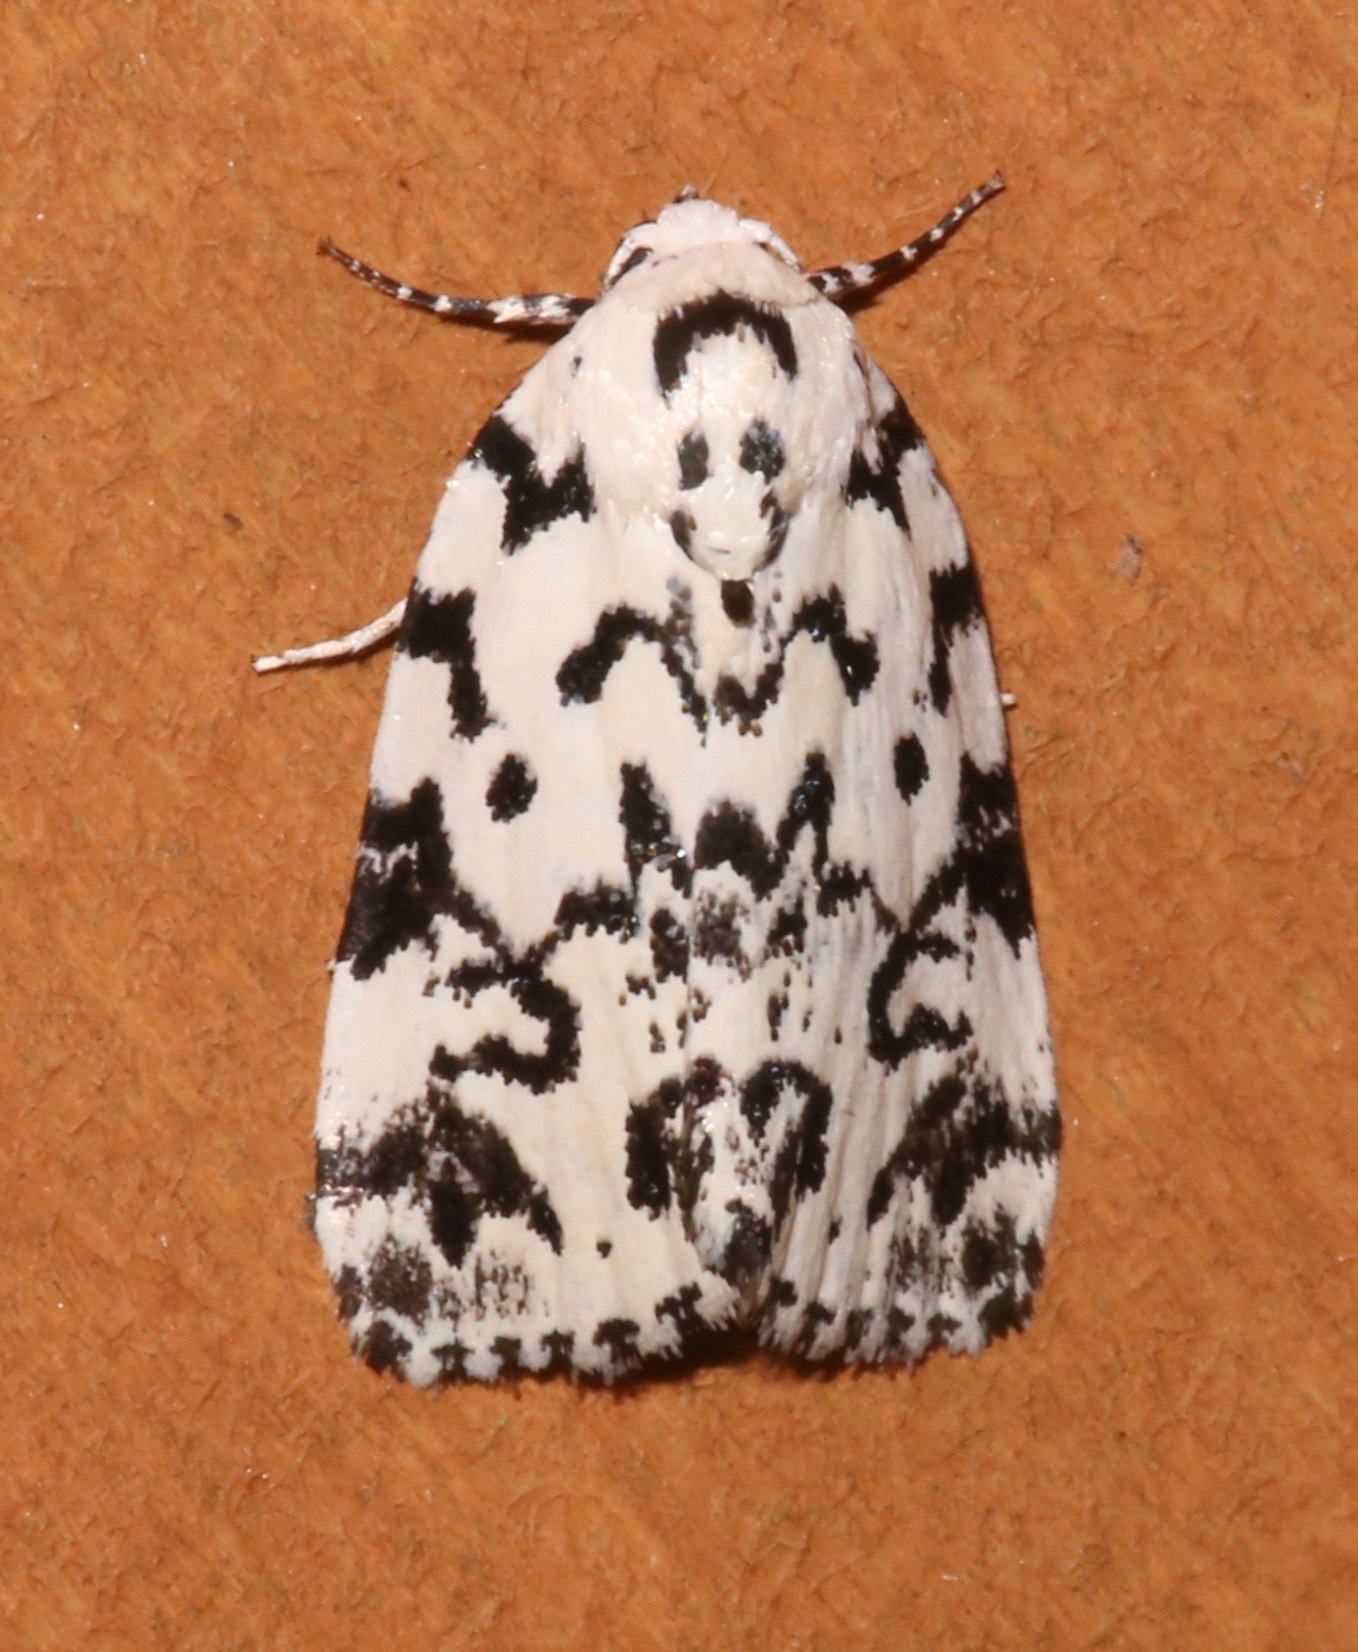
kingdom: Animalia
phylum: Arthropoda
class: Insecta
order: Lepidoptera
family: Noctuidae
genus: Polygrammate
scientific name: Polygrammate hebraeicum
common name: Hebrew moth
